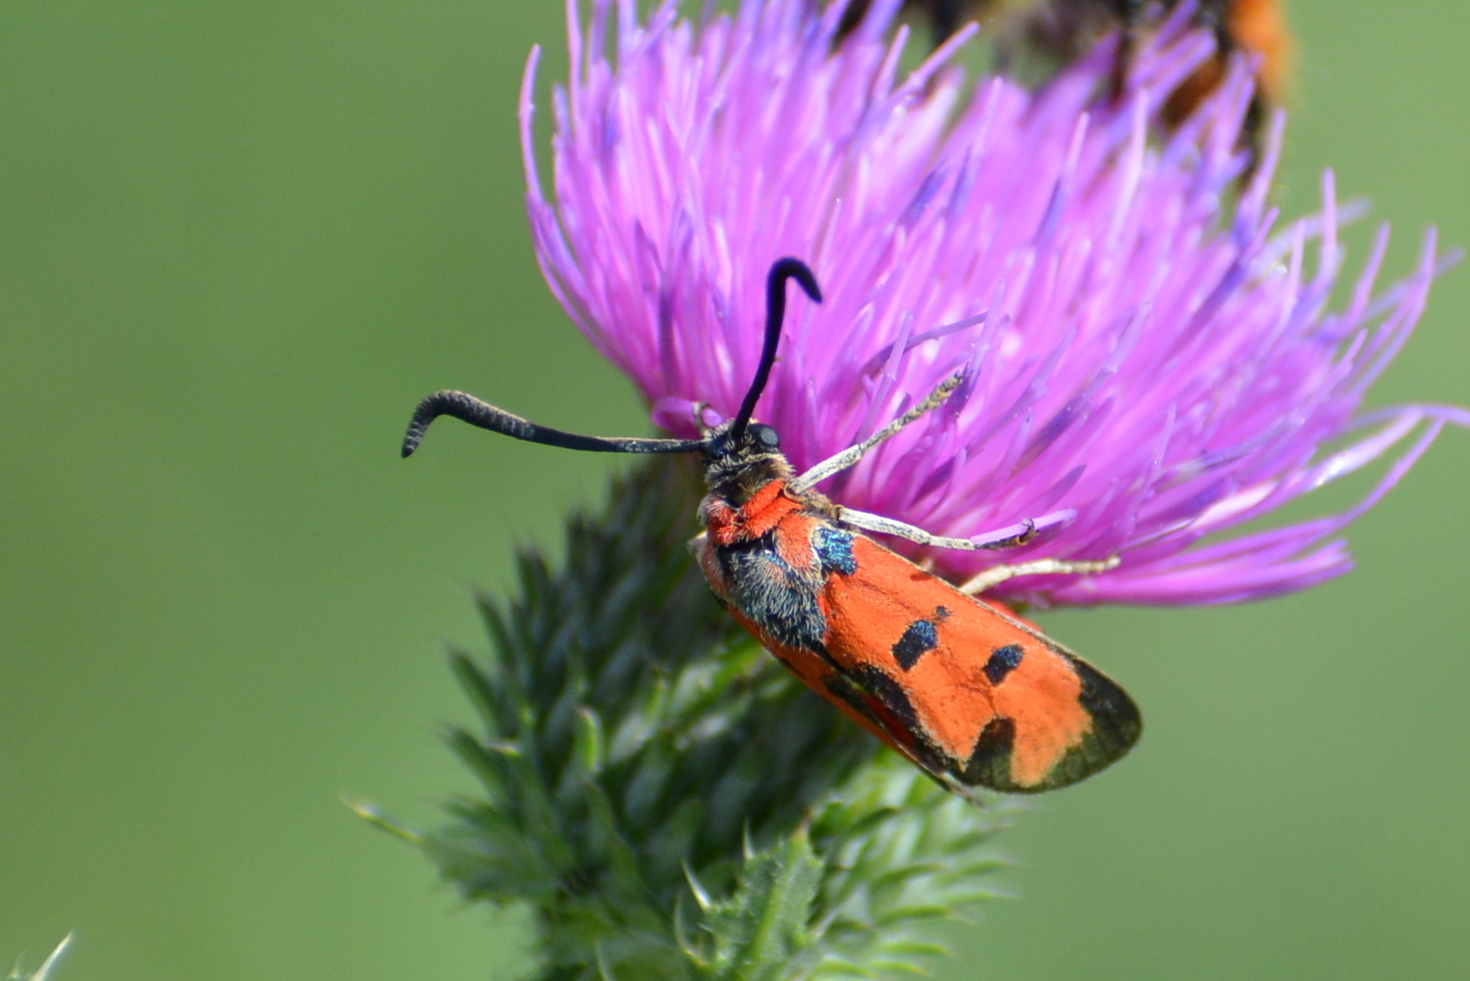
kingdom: Animalia
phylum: Arthropoda
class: Insecta
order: Lepidoptera
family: Zygaenidae
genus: Zygaena
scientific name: Zygaena laeta
